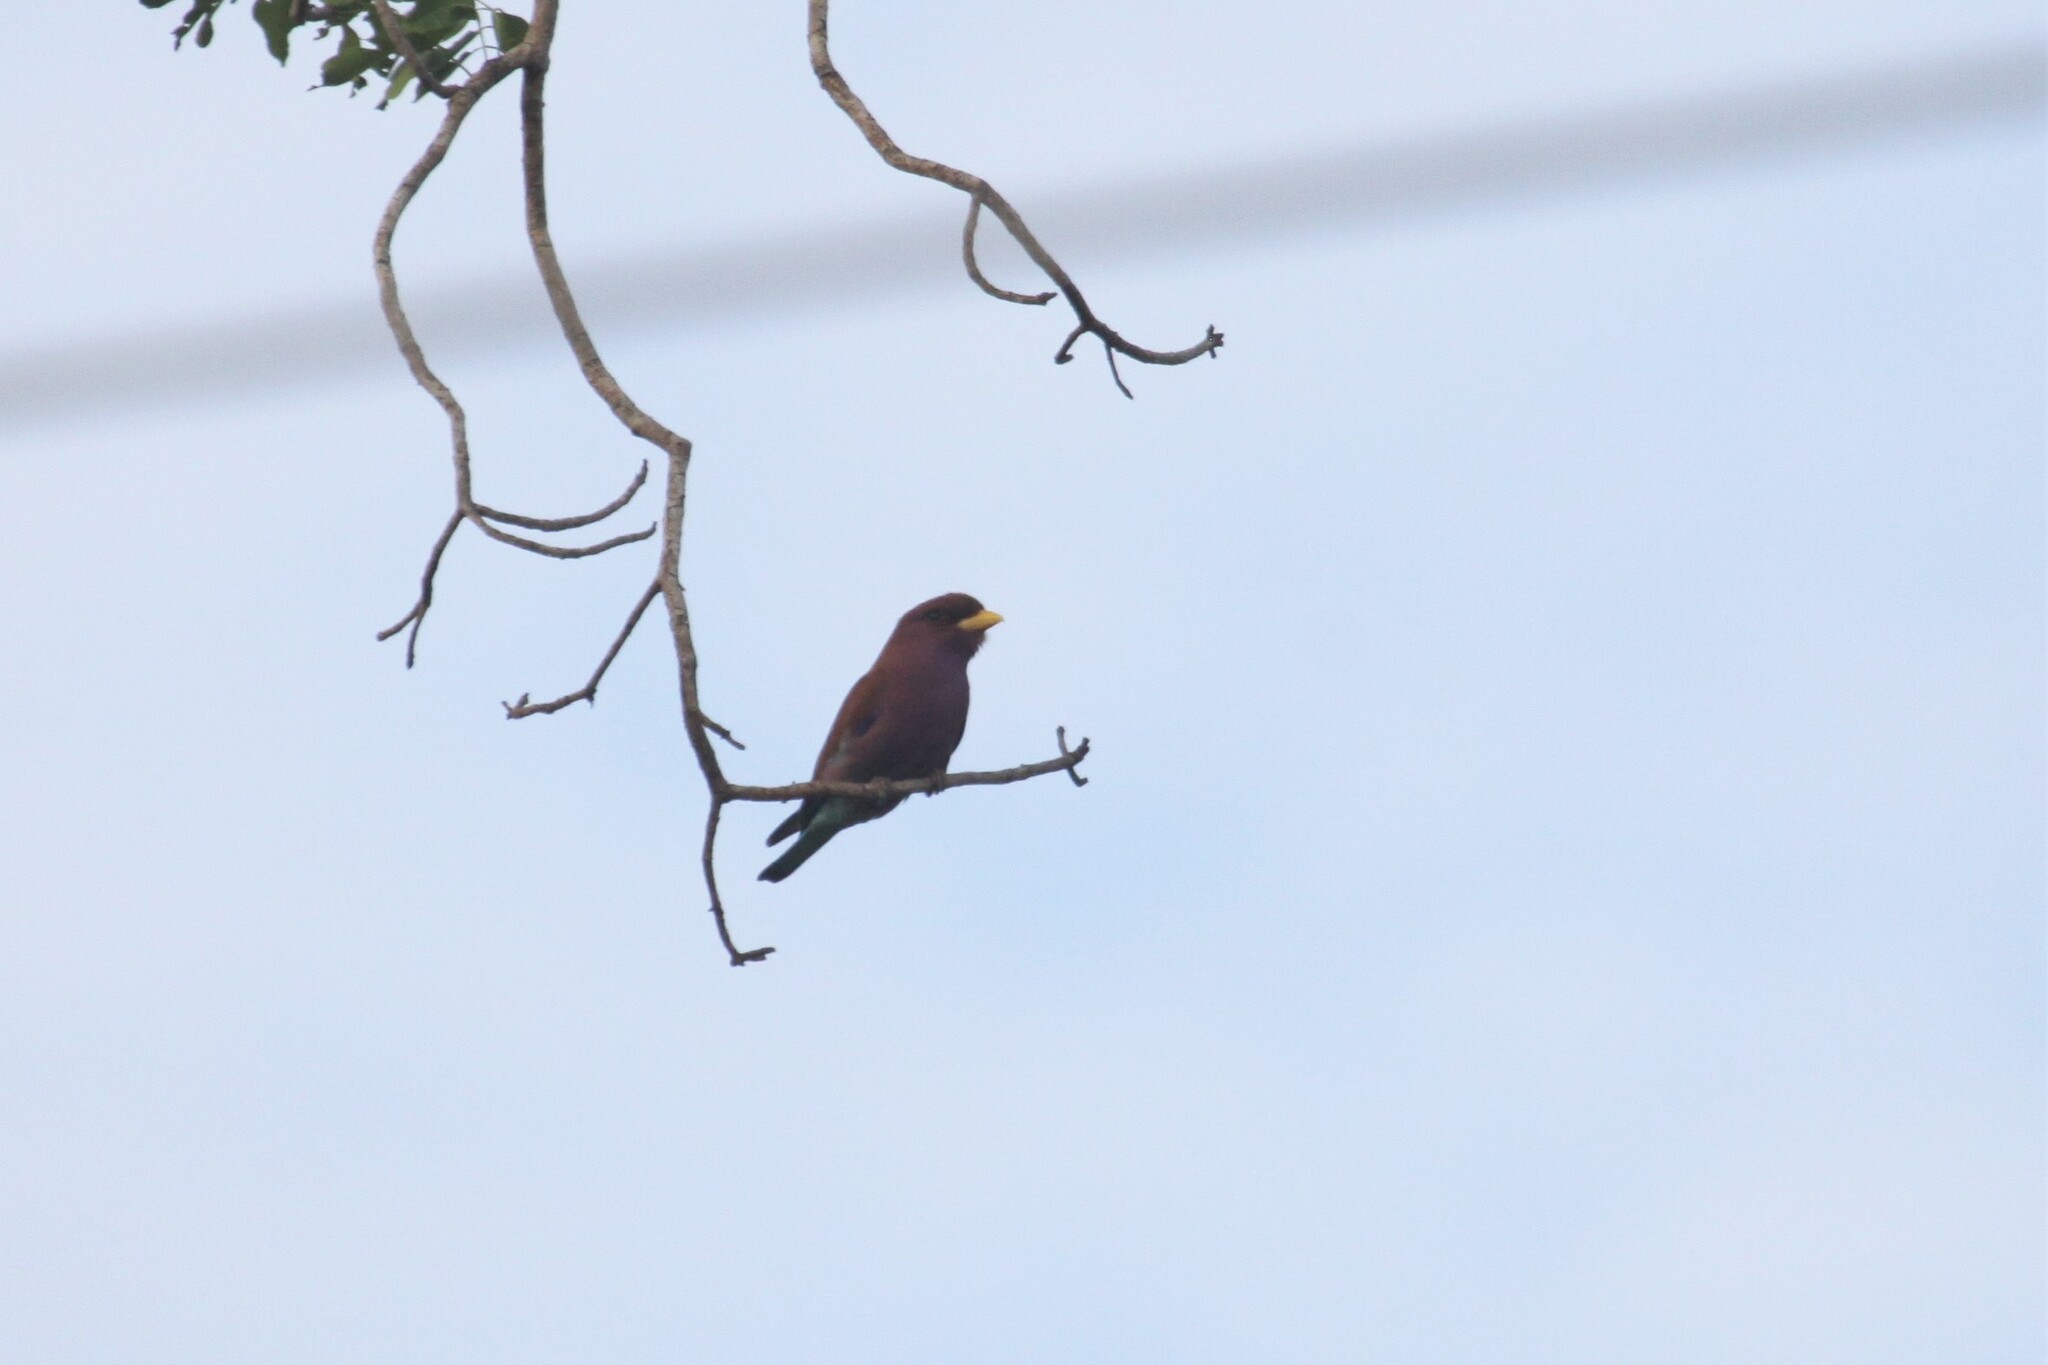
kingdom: Animalia
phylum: Chordata
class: Aves
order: Coraciiformes
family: Coraciidae
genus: Eurystomus
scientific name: Eurystomus glaucurus
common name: Broad-billed roller
